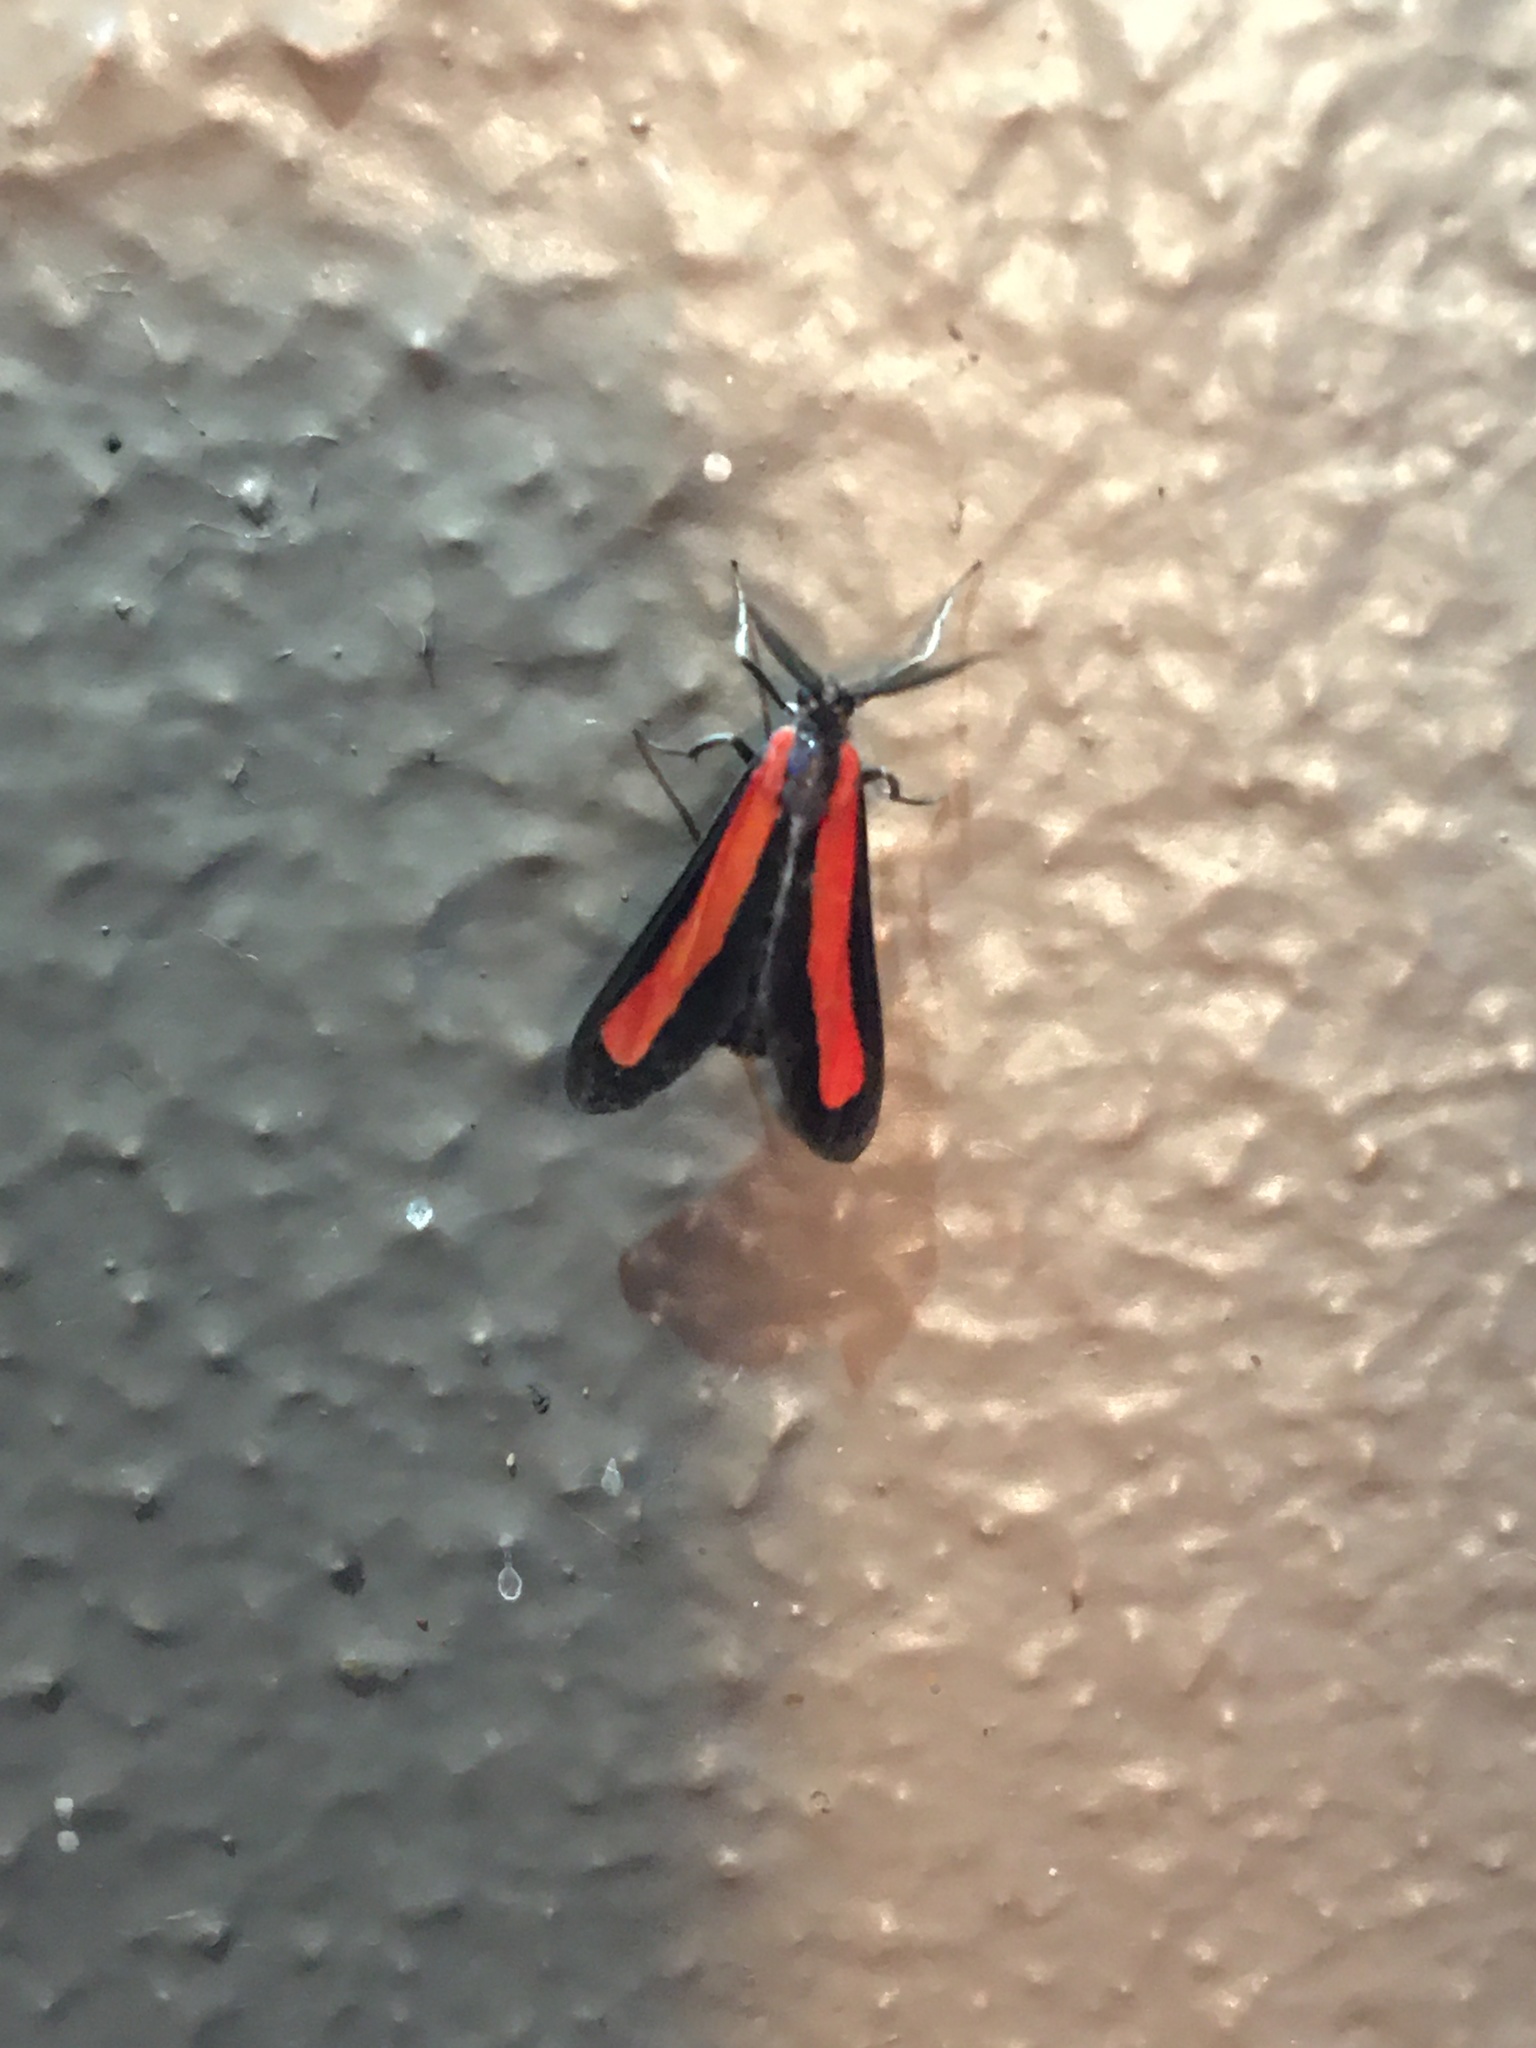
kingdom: Animalia
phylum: Arthropoda
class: Insecta
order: Lepidoptera
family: Erebidae
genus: Tipulodes
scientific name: Tipulodes ima
